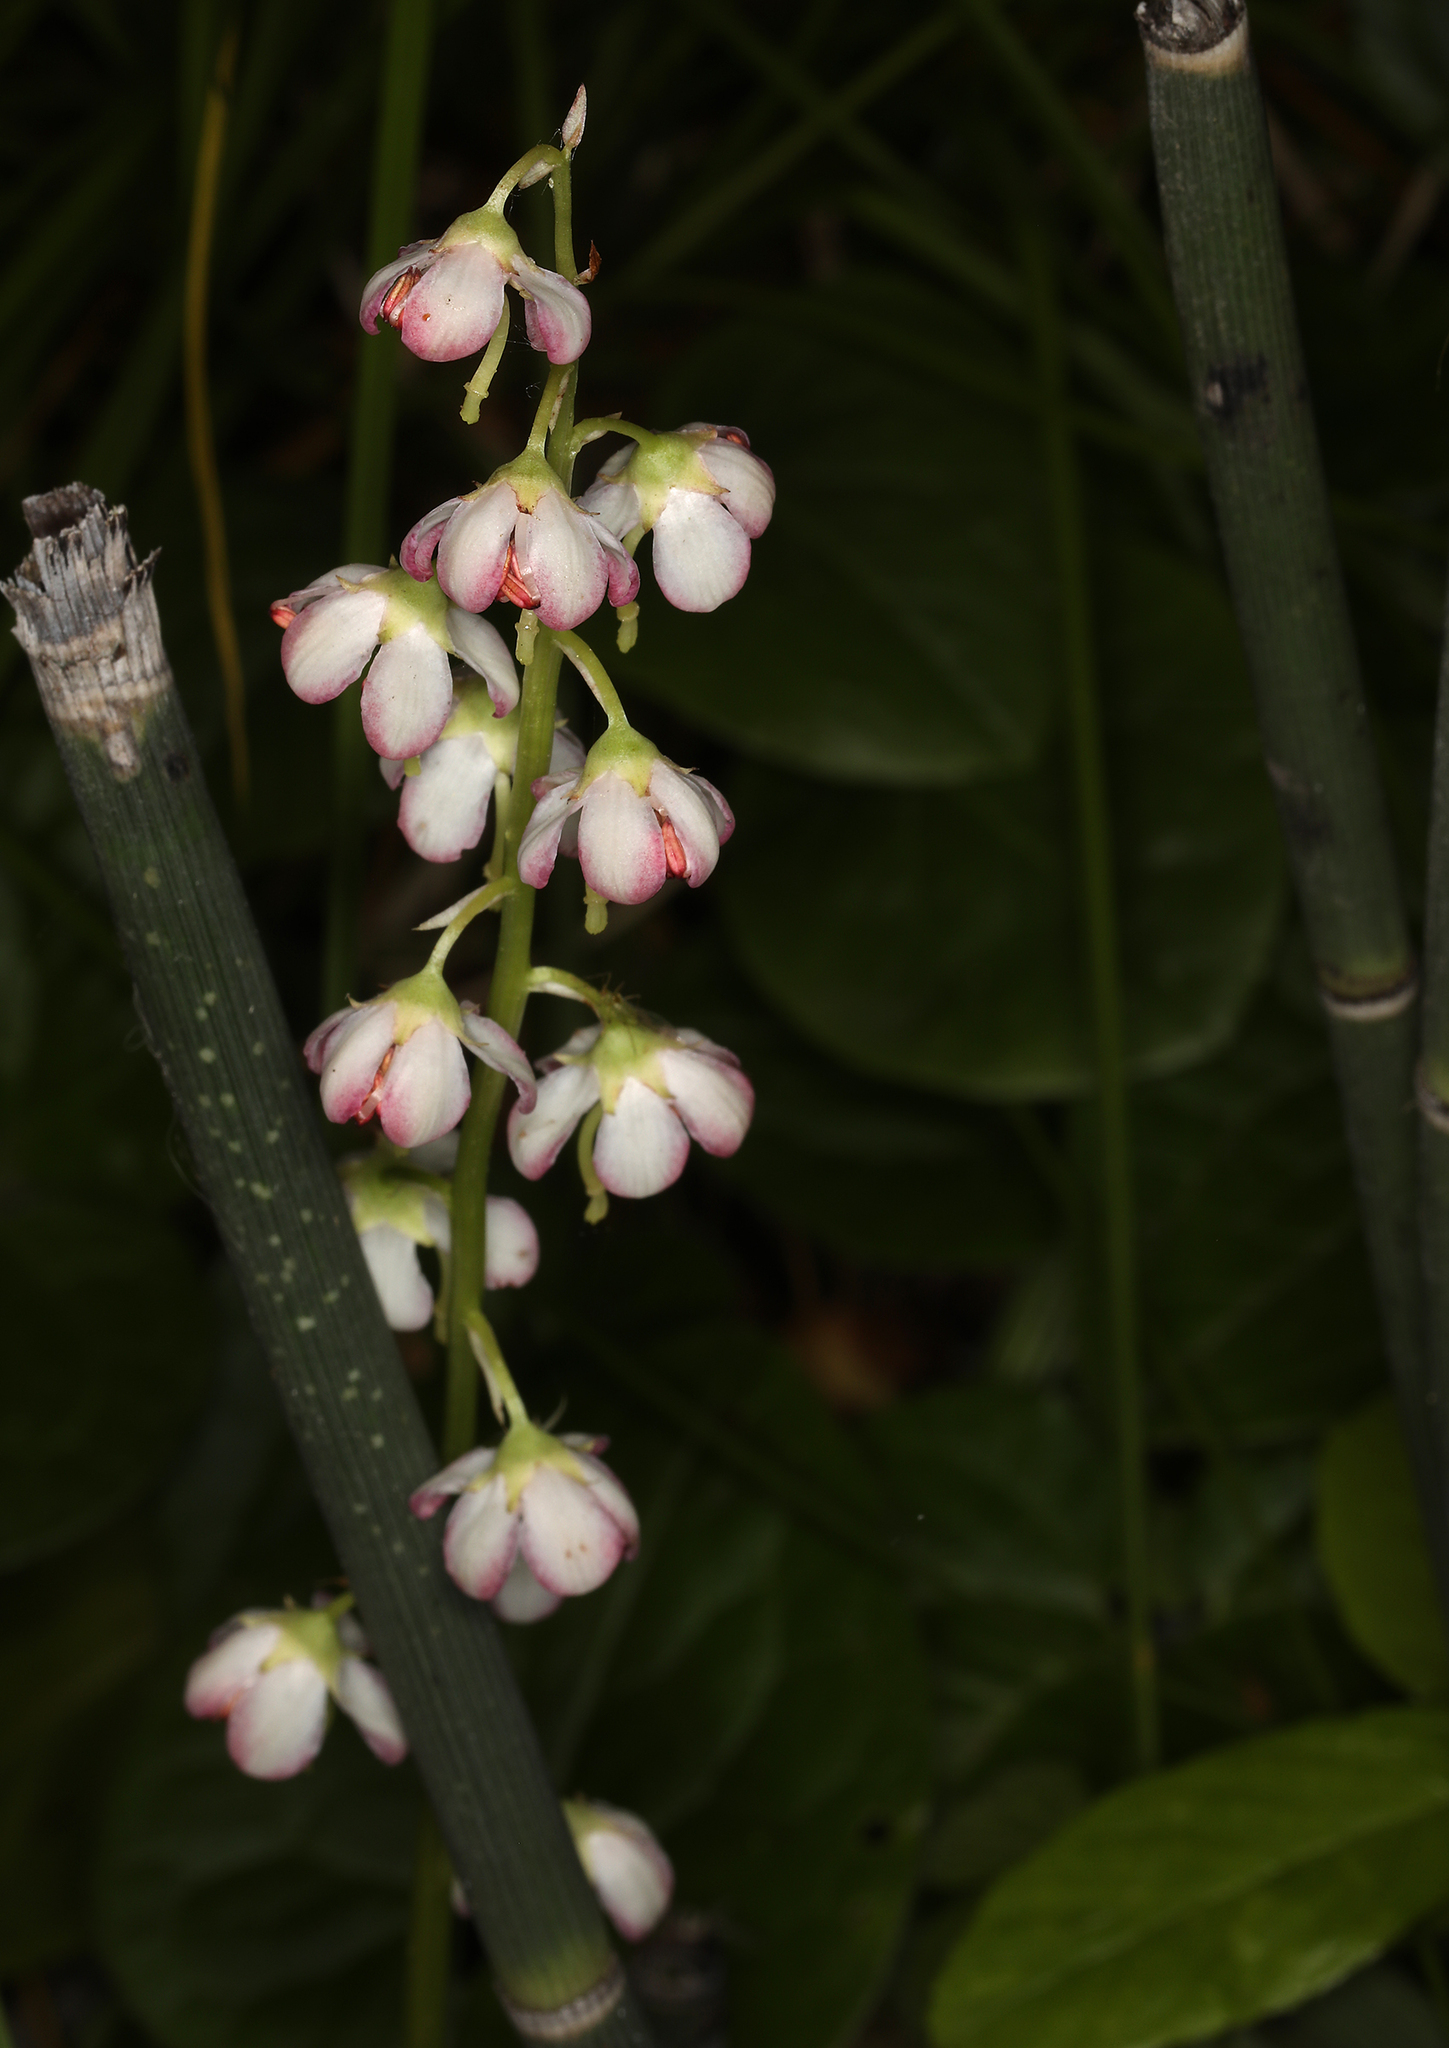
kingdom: Plantae
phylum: Tracheophyta
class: Magnoliopsida
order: Ericales
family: Ericaceae
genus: Pyrola
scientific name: Pyrola asarifolia
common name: Bog wintergreen
